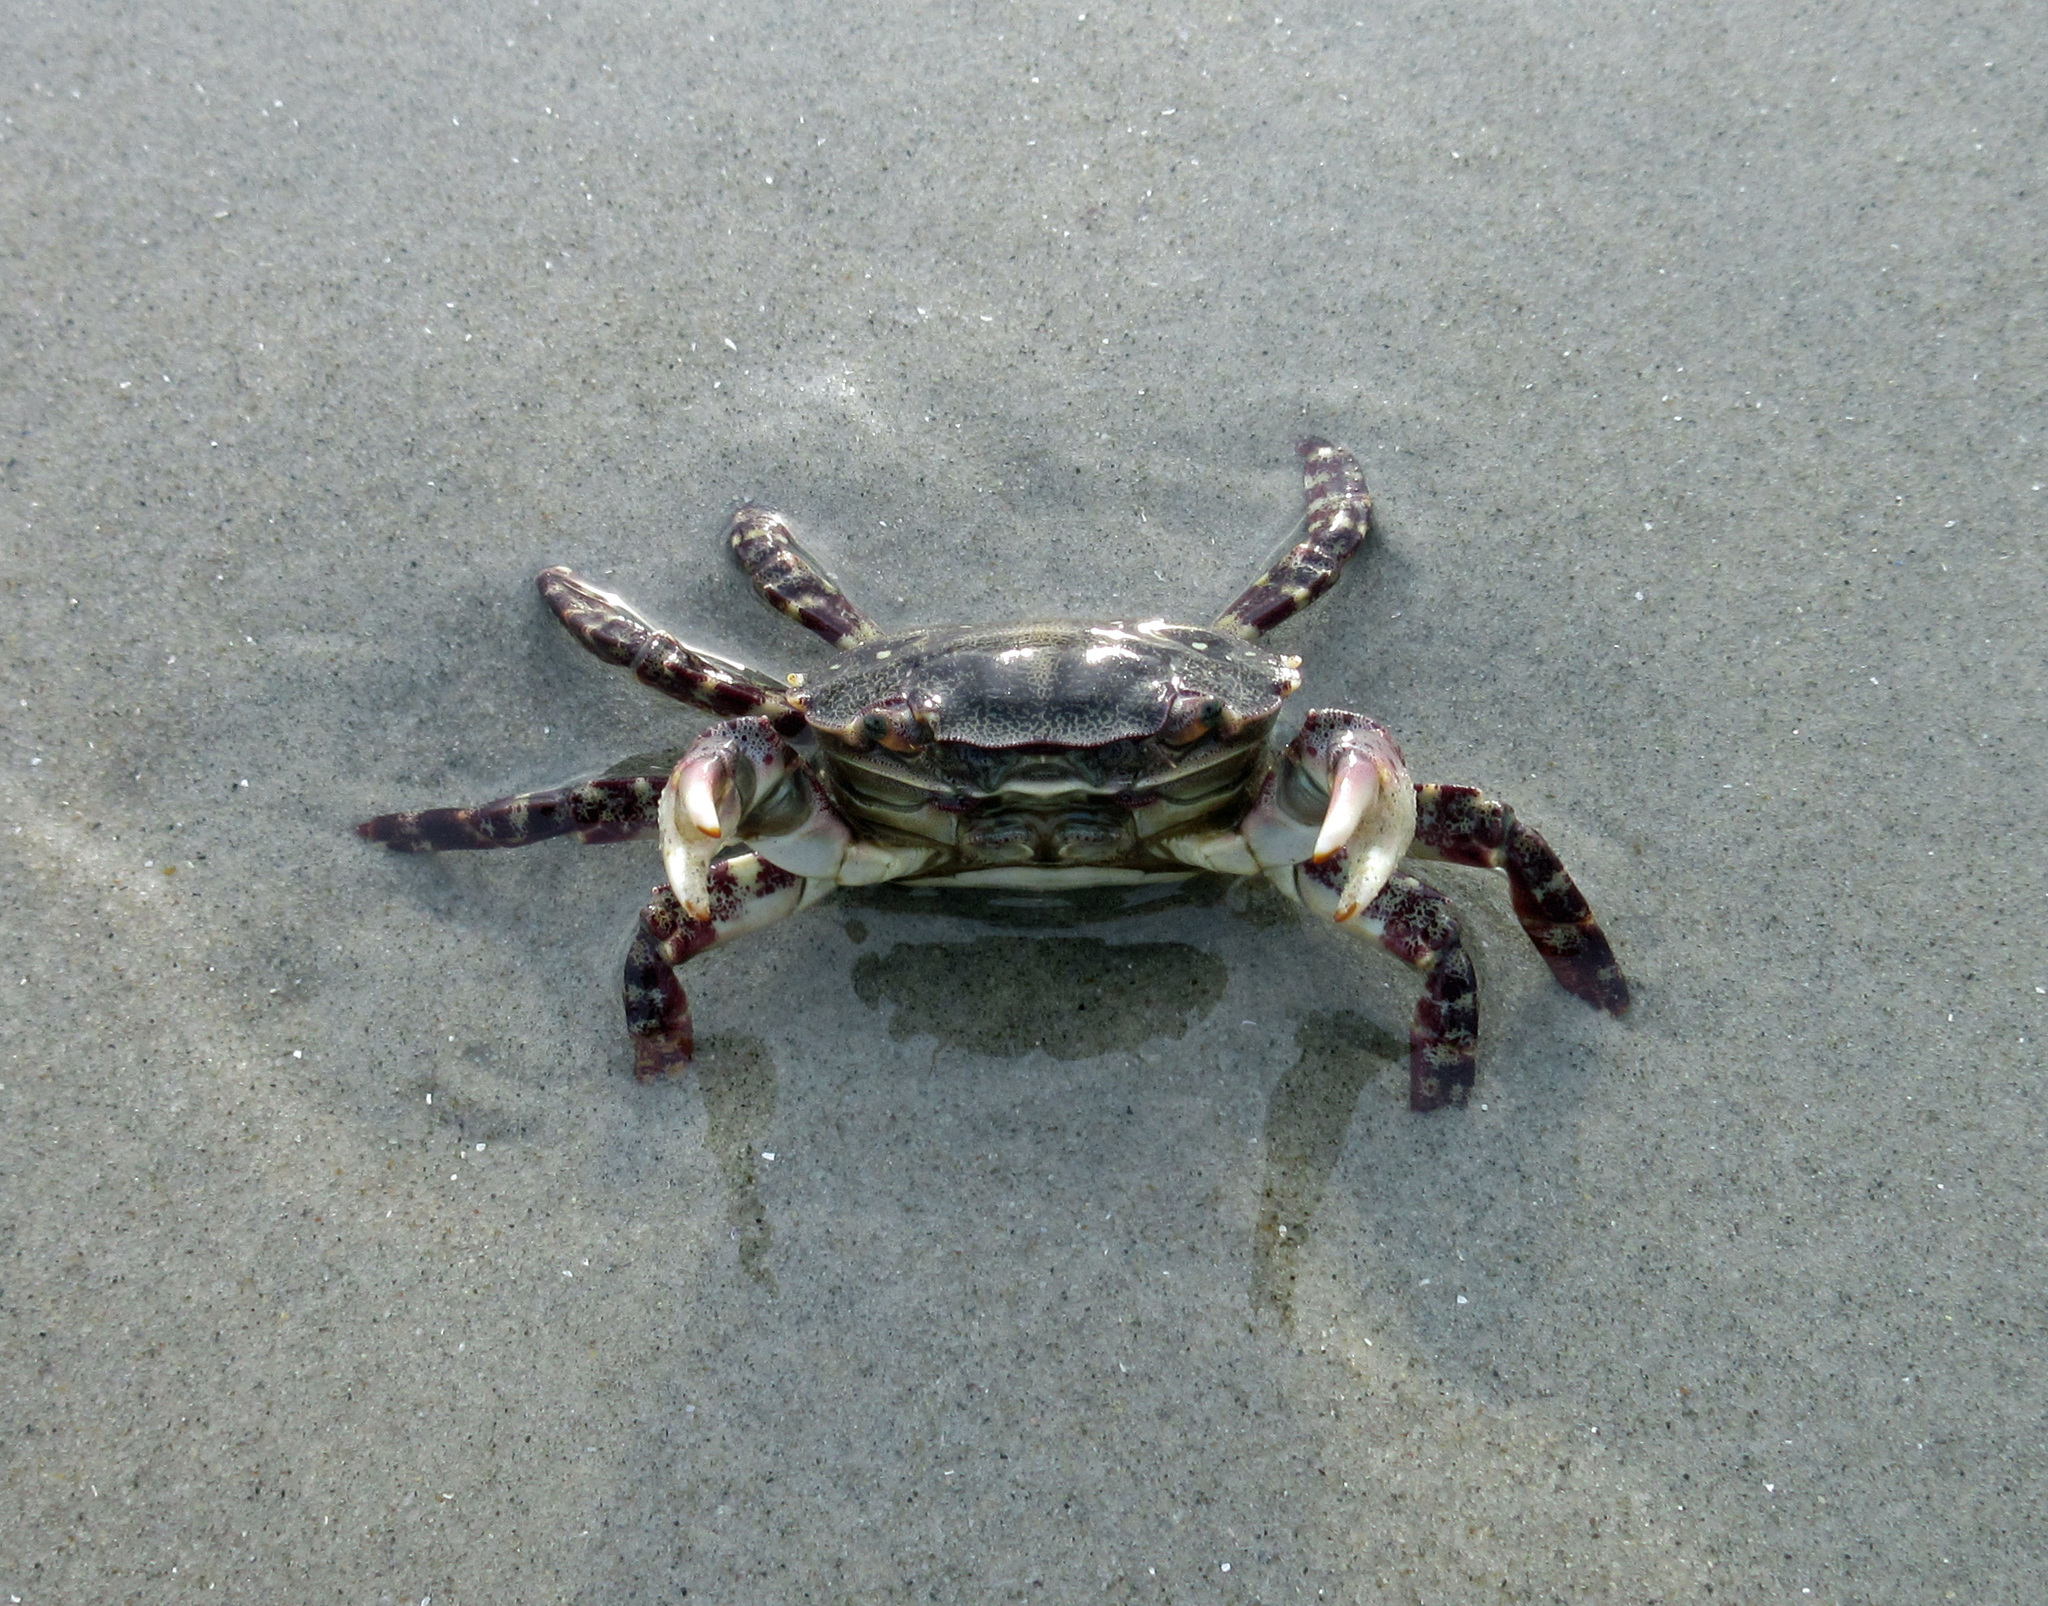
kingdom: Animalia
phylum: Arthropoda
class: Malacostraca
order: Decapoda
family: Varunidae
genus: Hemigrapsus
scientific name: Hemigrapsus sanguineus
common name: Asian shore crab
